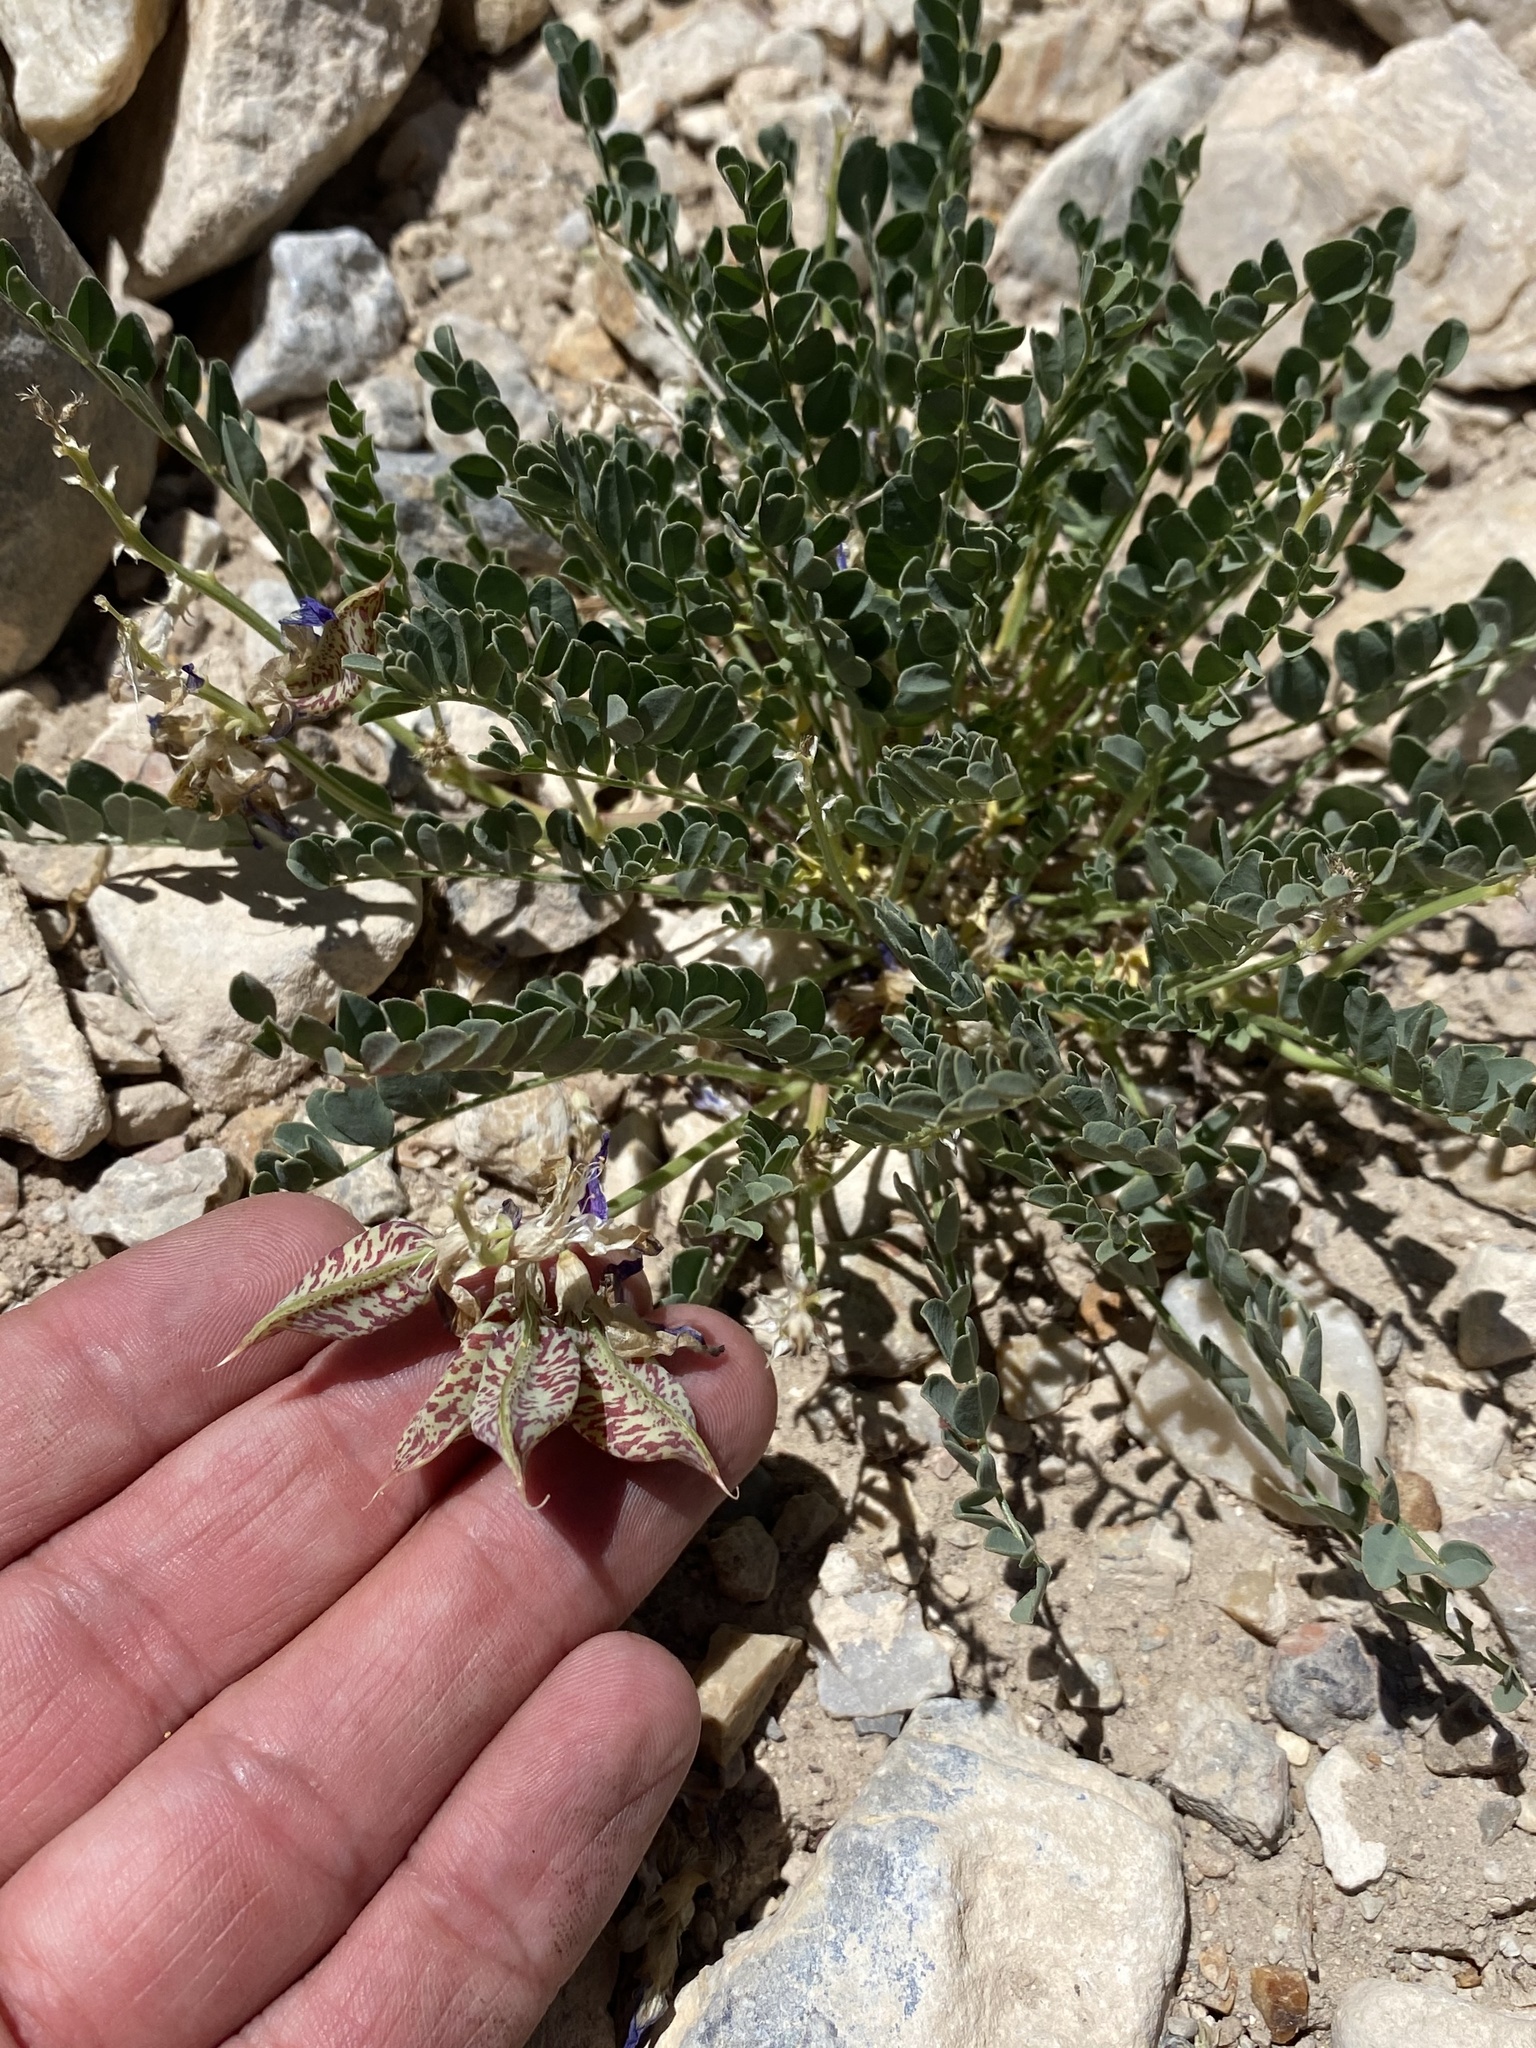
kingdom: Plantae
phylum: Tracheophyta
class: Magnoliopsida
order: Fabales
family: Fabaceae
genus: Astragalus
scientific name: Astragalus beckwithii
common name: Beckwith's milk-vetch
